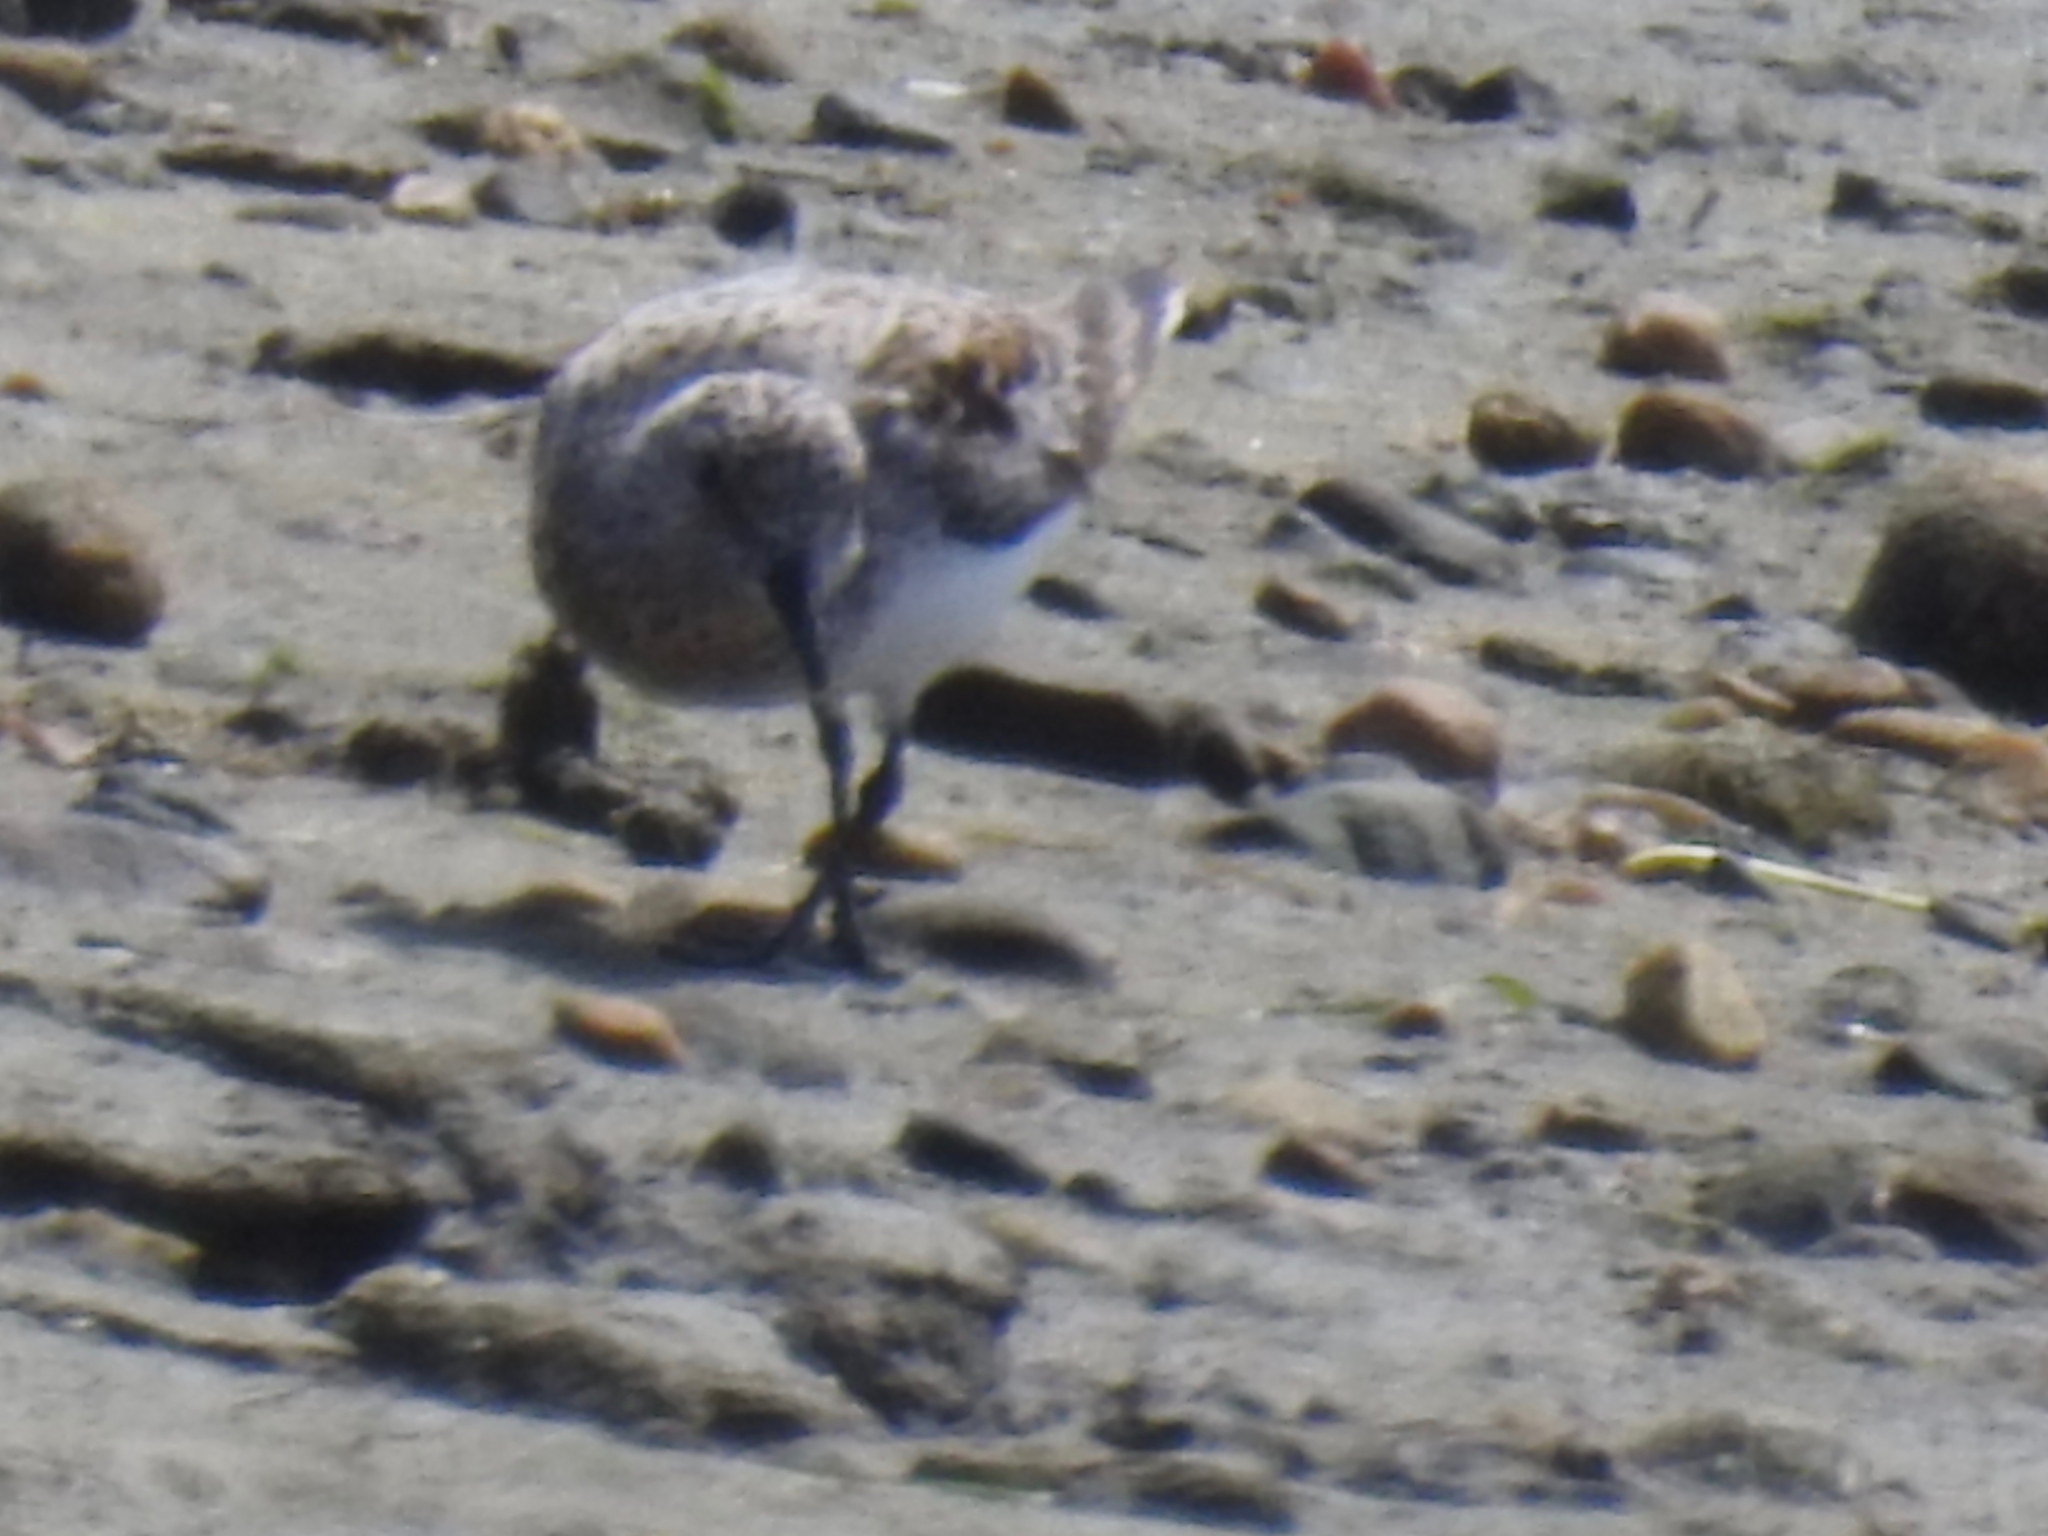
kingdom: Animalia
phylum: Chordata
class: Aves
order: Charadriiformes
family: Scolopacidae
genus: Calidris
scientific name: Calidris alba
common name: Sanderling
